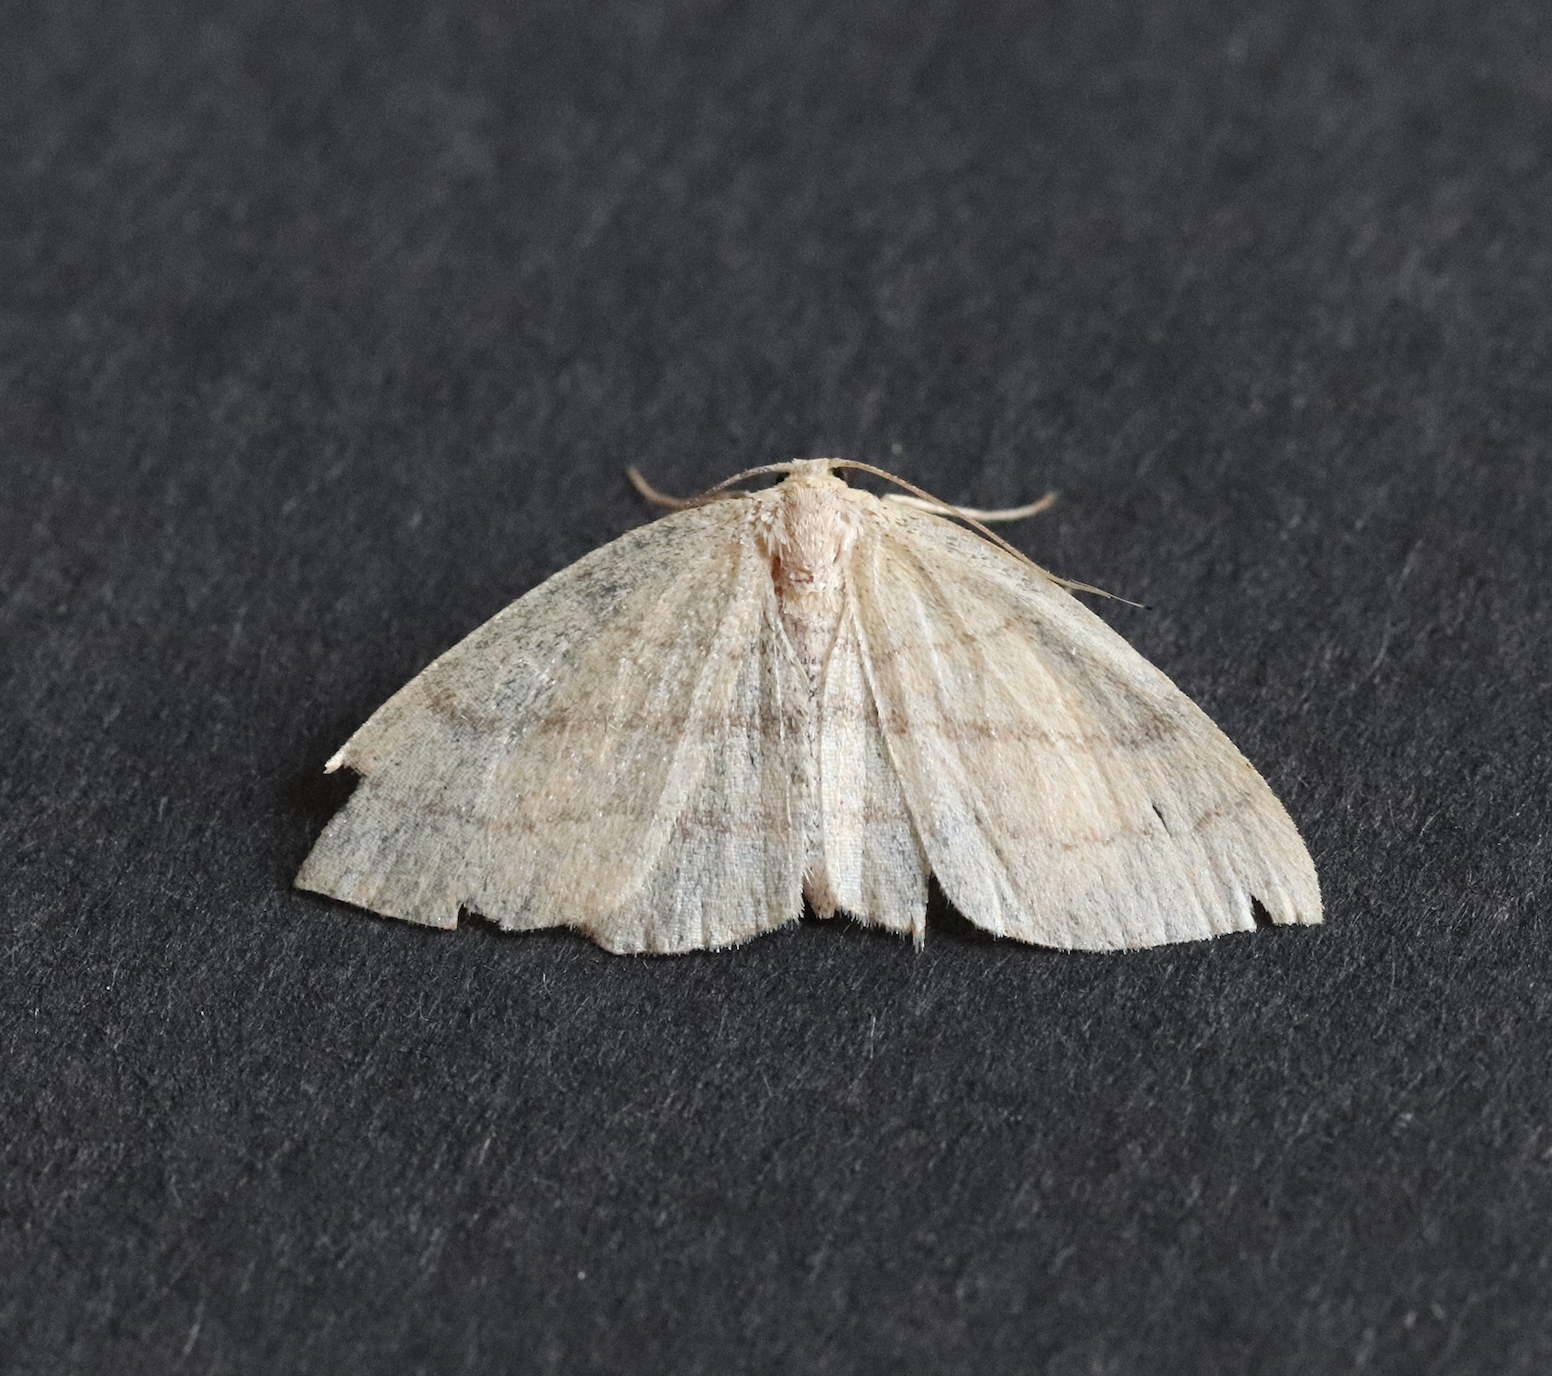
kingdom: Animalia
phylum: Arthropoda
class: Insecta
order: Lepidoptera
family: Geometridae
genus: Cyclophora
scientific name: Cyclophora linearia
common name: Clay triple-lines
